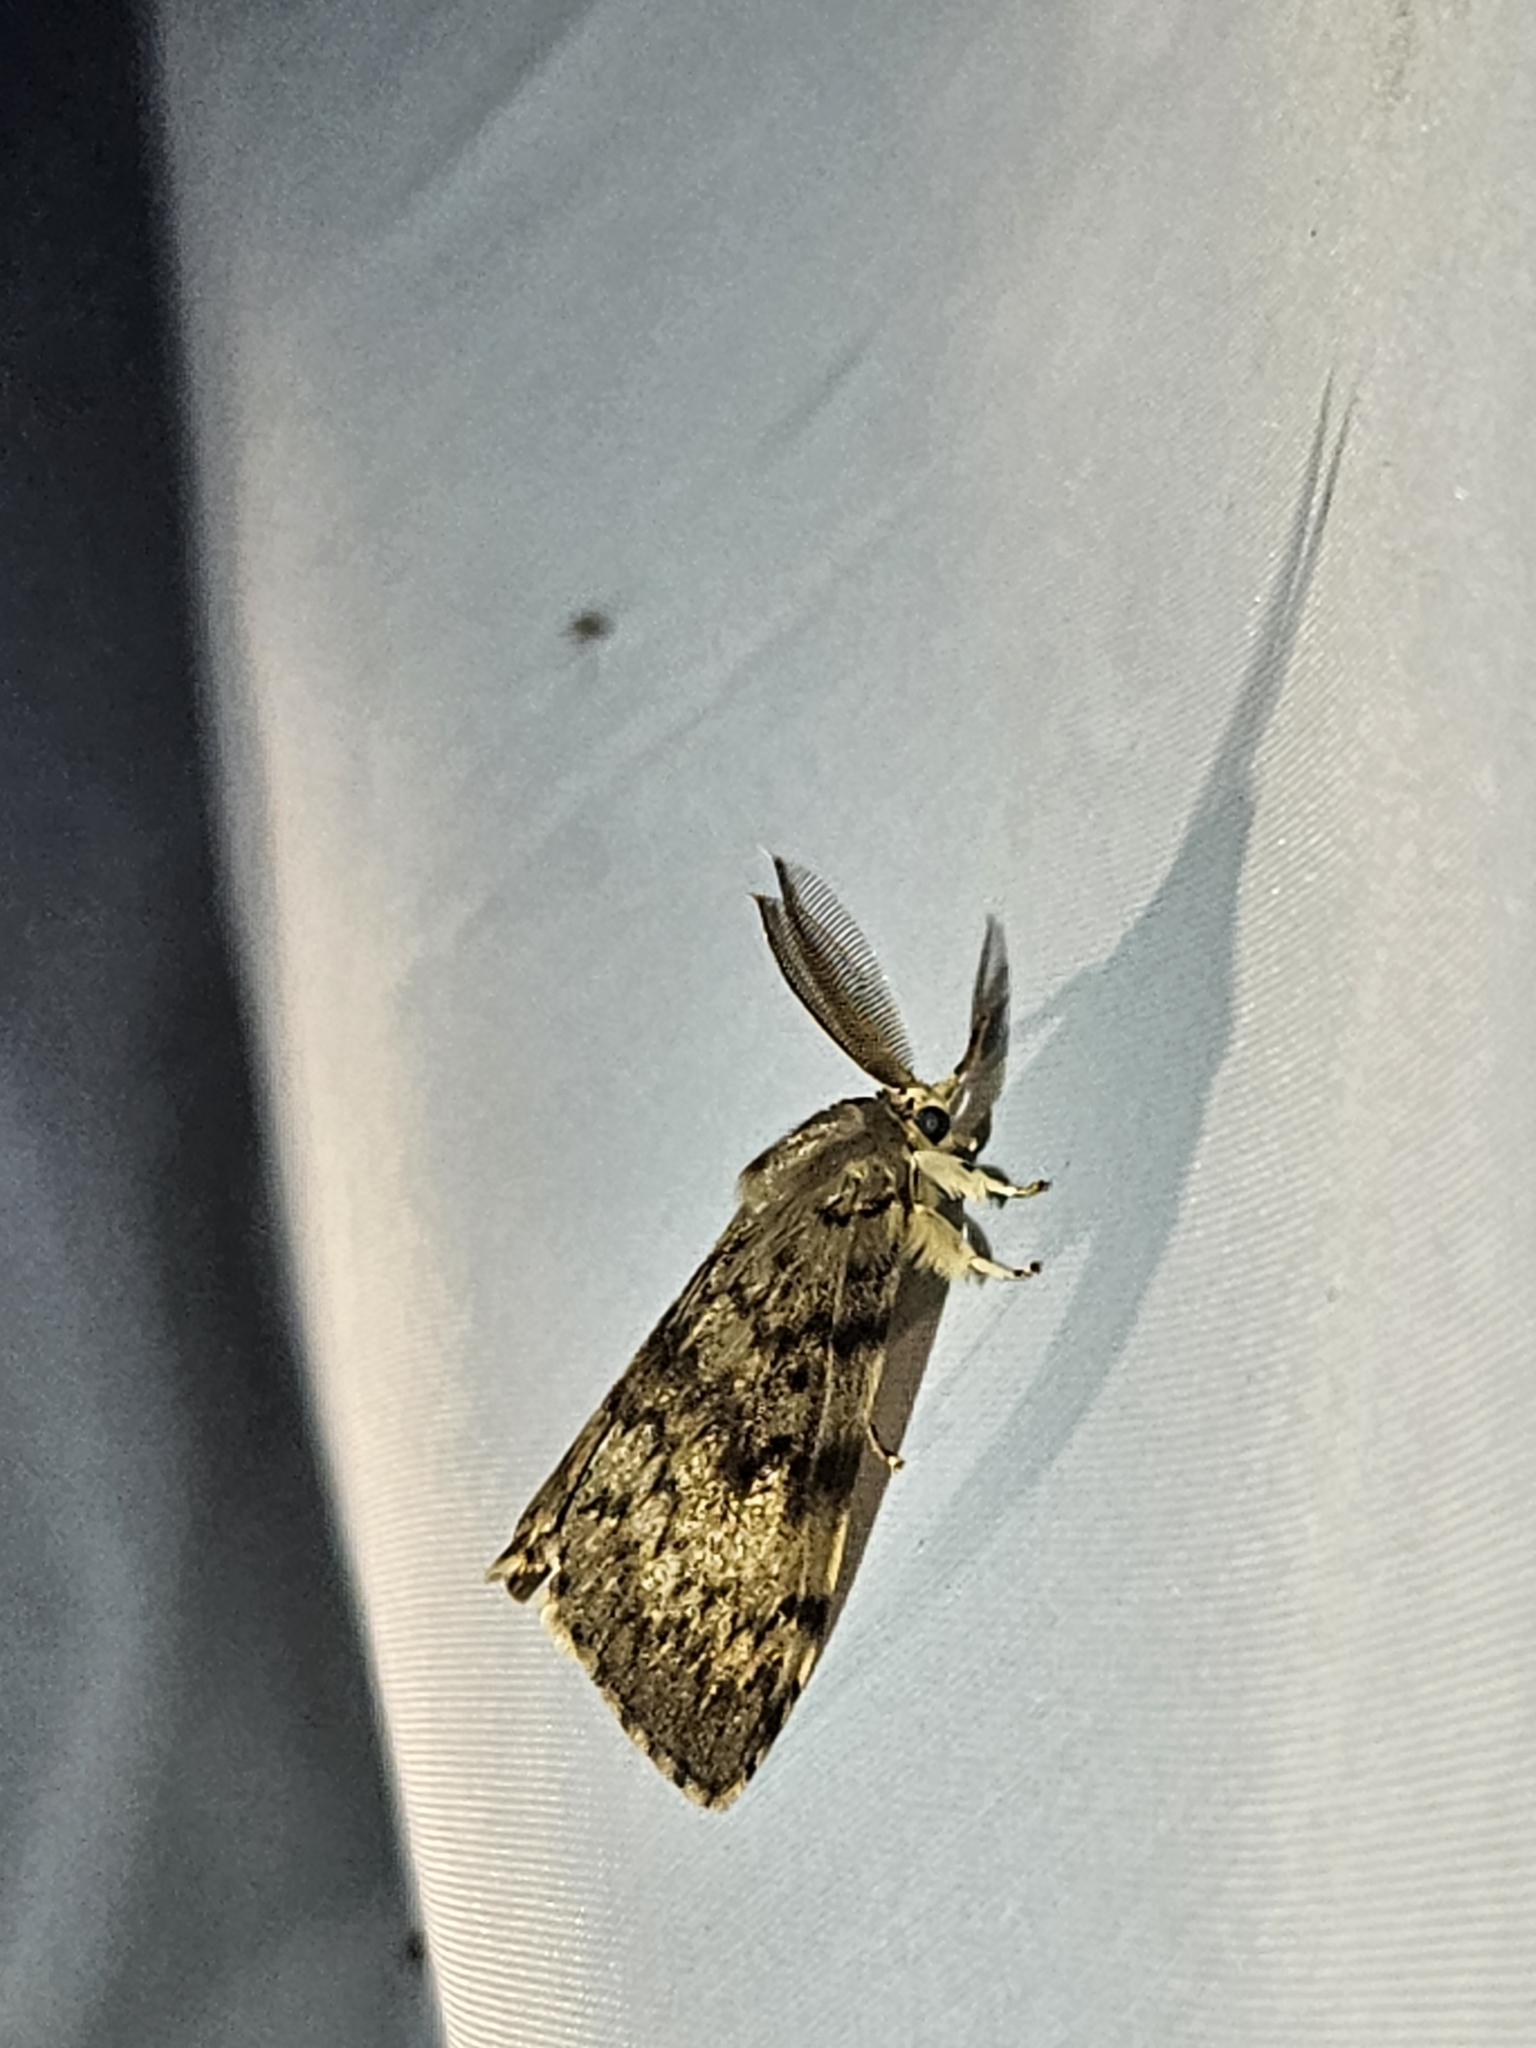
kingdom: Animalia
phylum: Arthropoda
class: Insecta
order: Lepidoptera
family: Erebidae
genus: Lymantria
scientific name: Lymantria dispar
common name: Gypsy moth
